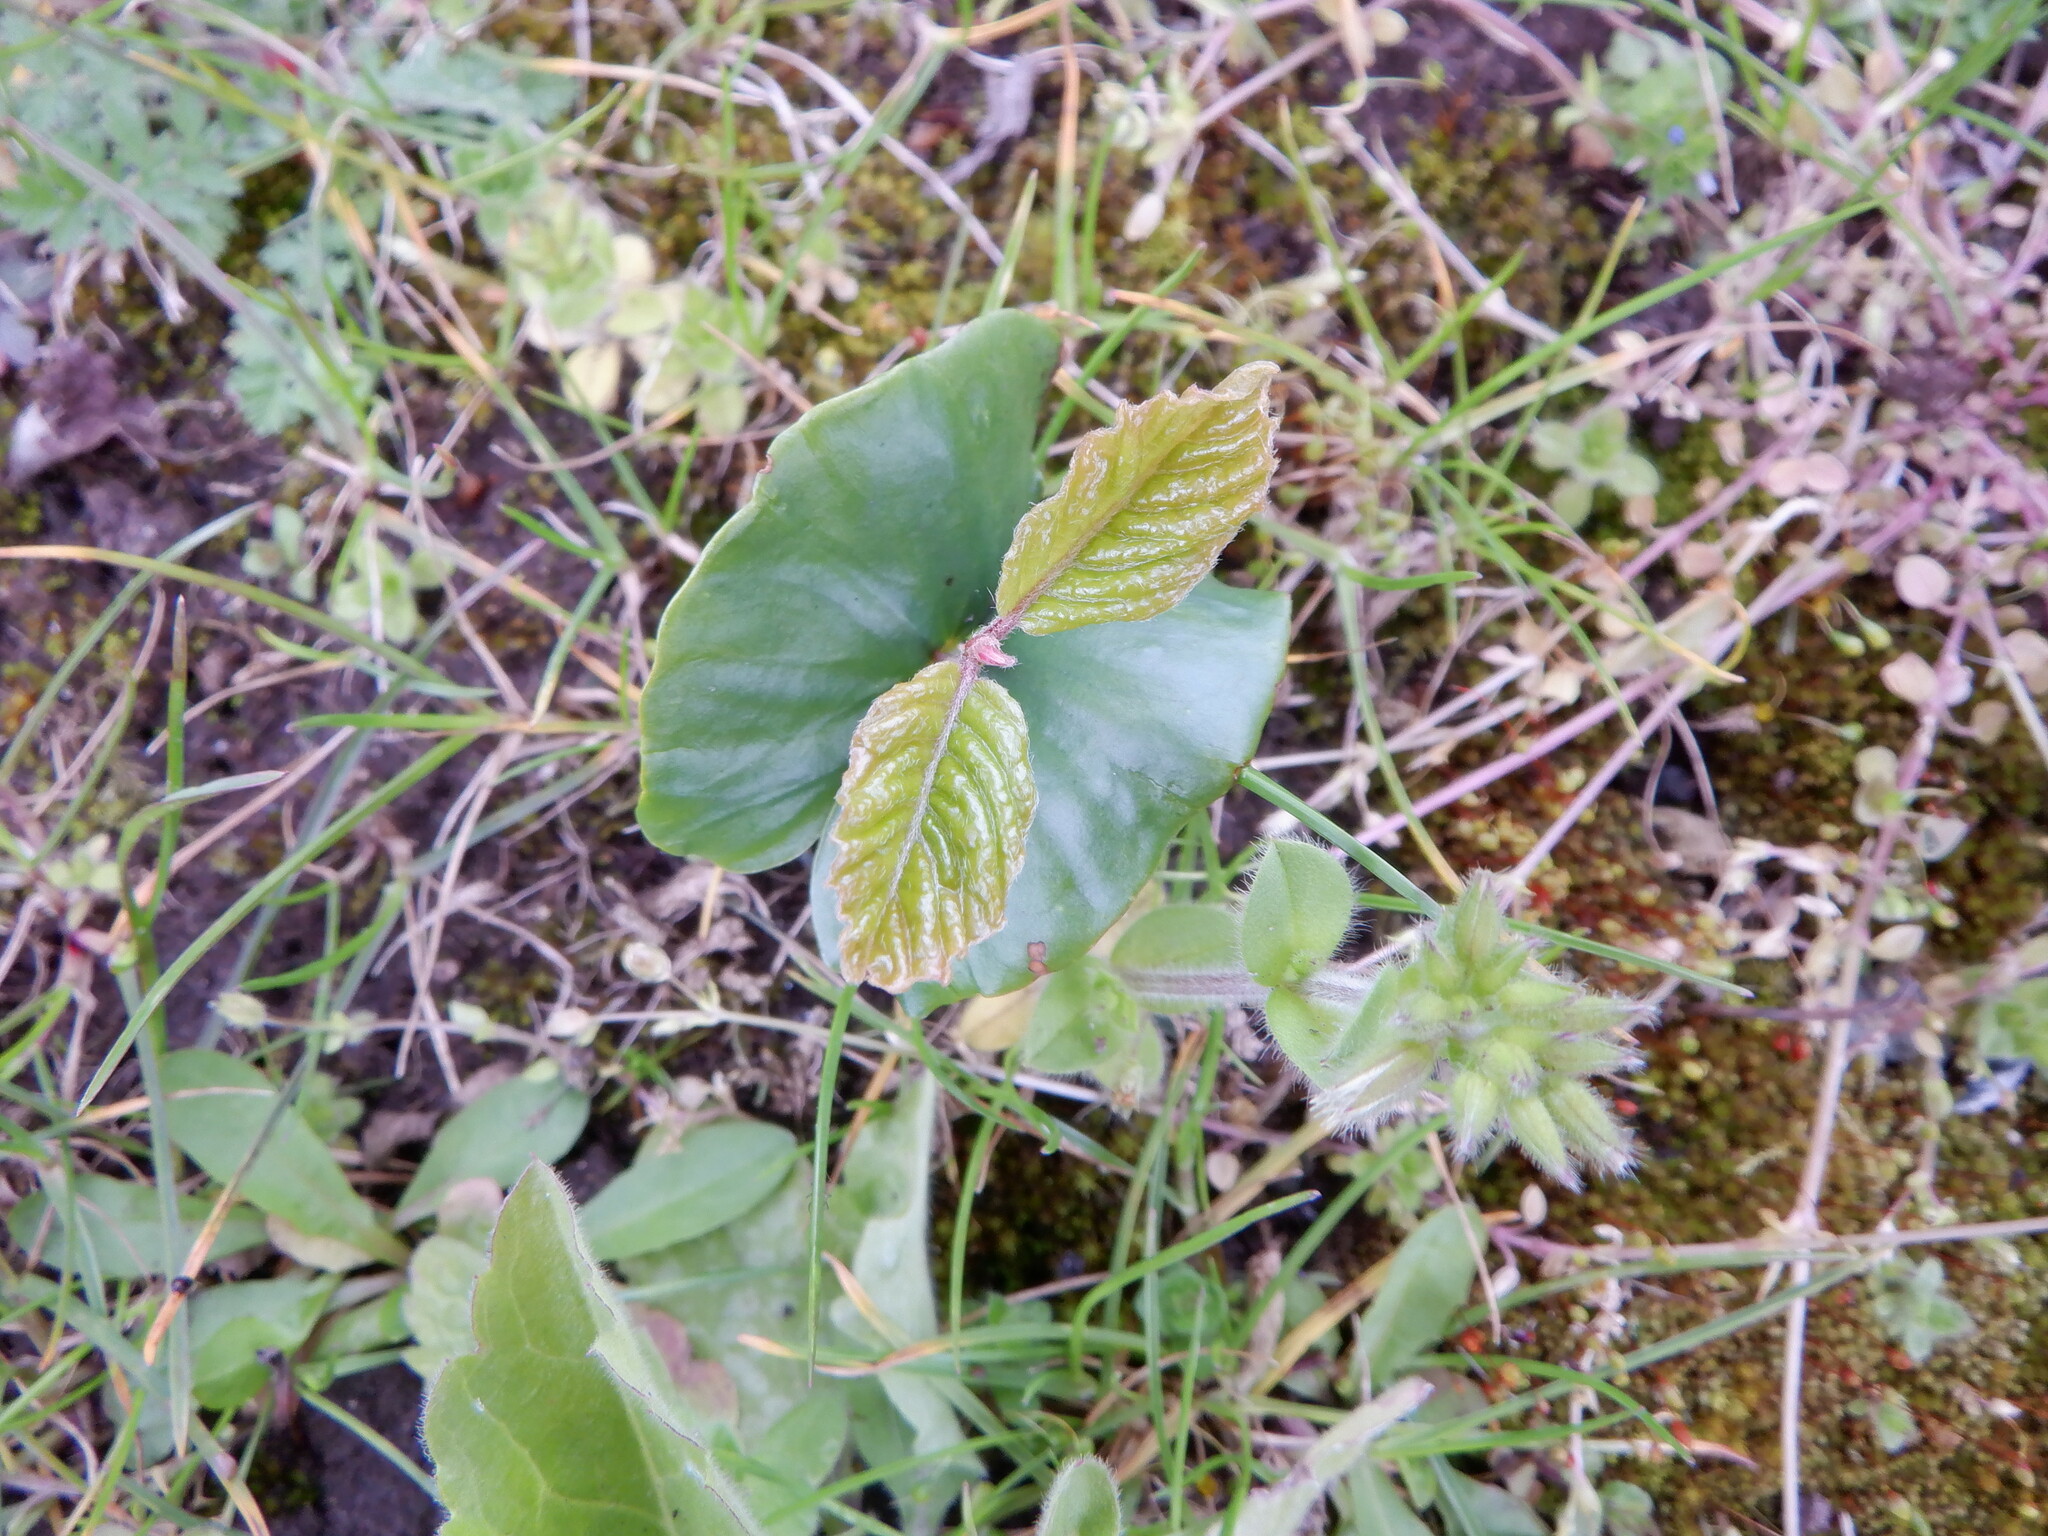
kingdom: Plantae
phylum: Tracheophyta
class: Magnoliopsida
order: Fagales
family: Fagaceae
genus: Fagus
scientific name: Fagus sylvatica
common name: Beech
